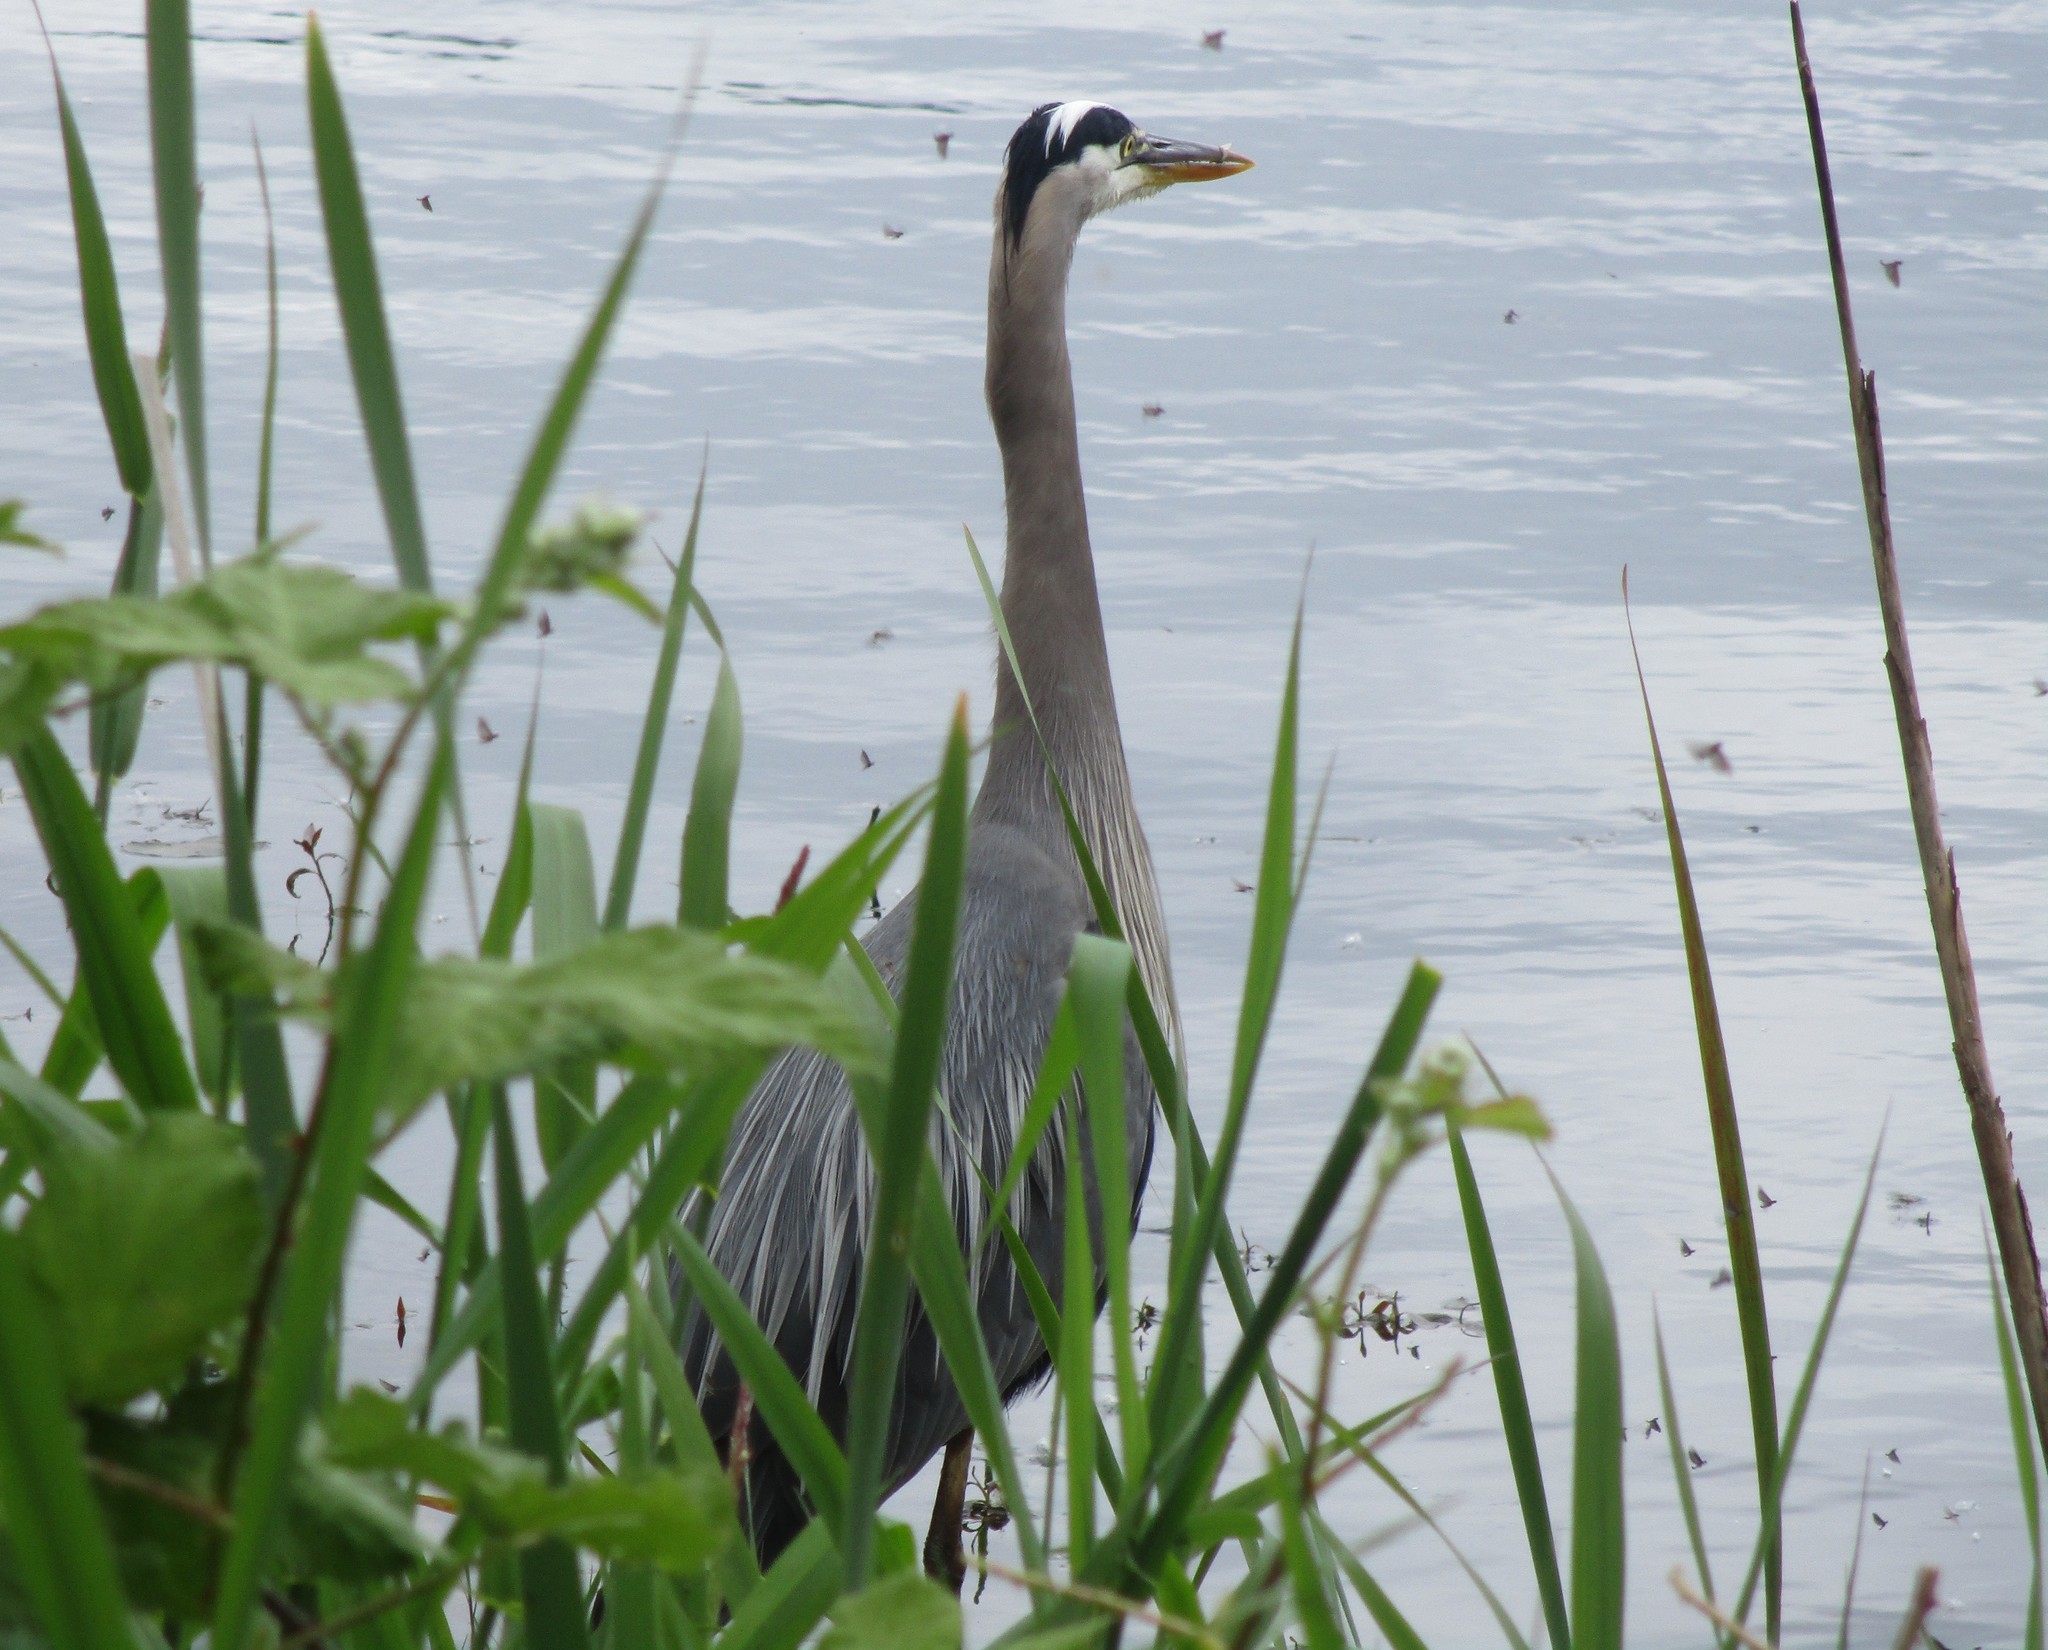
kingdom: Animalia
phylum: Chordata
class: Aves
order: Pelecaniformes
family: Ardeidae
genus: Ardea
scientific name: Ardea herodias
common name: Great blue heron
